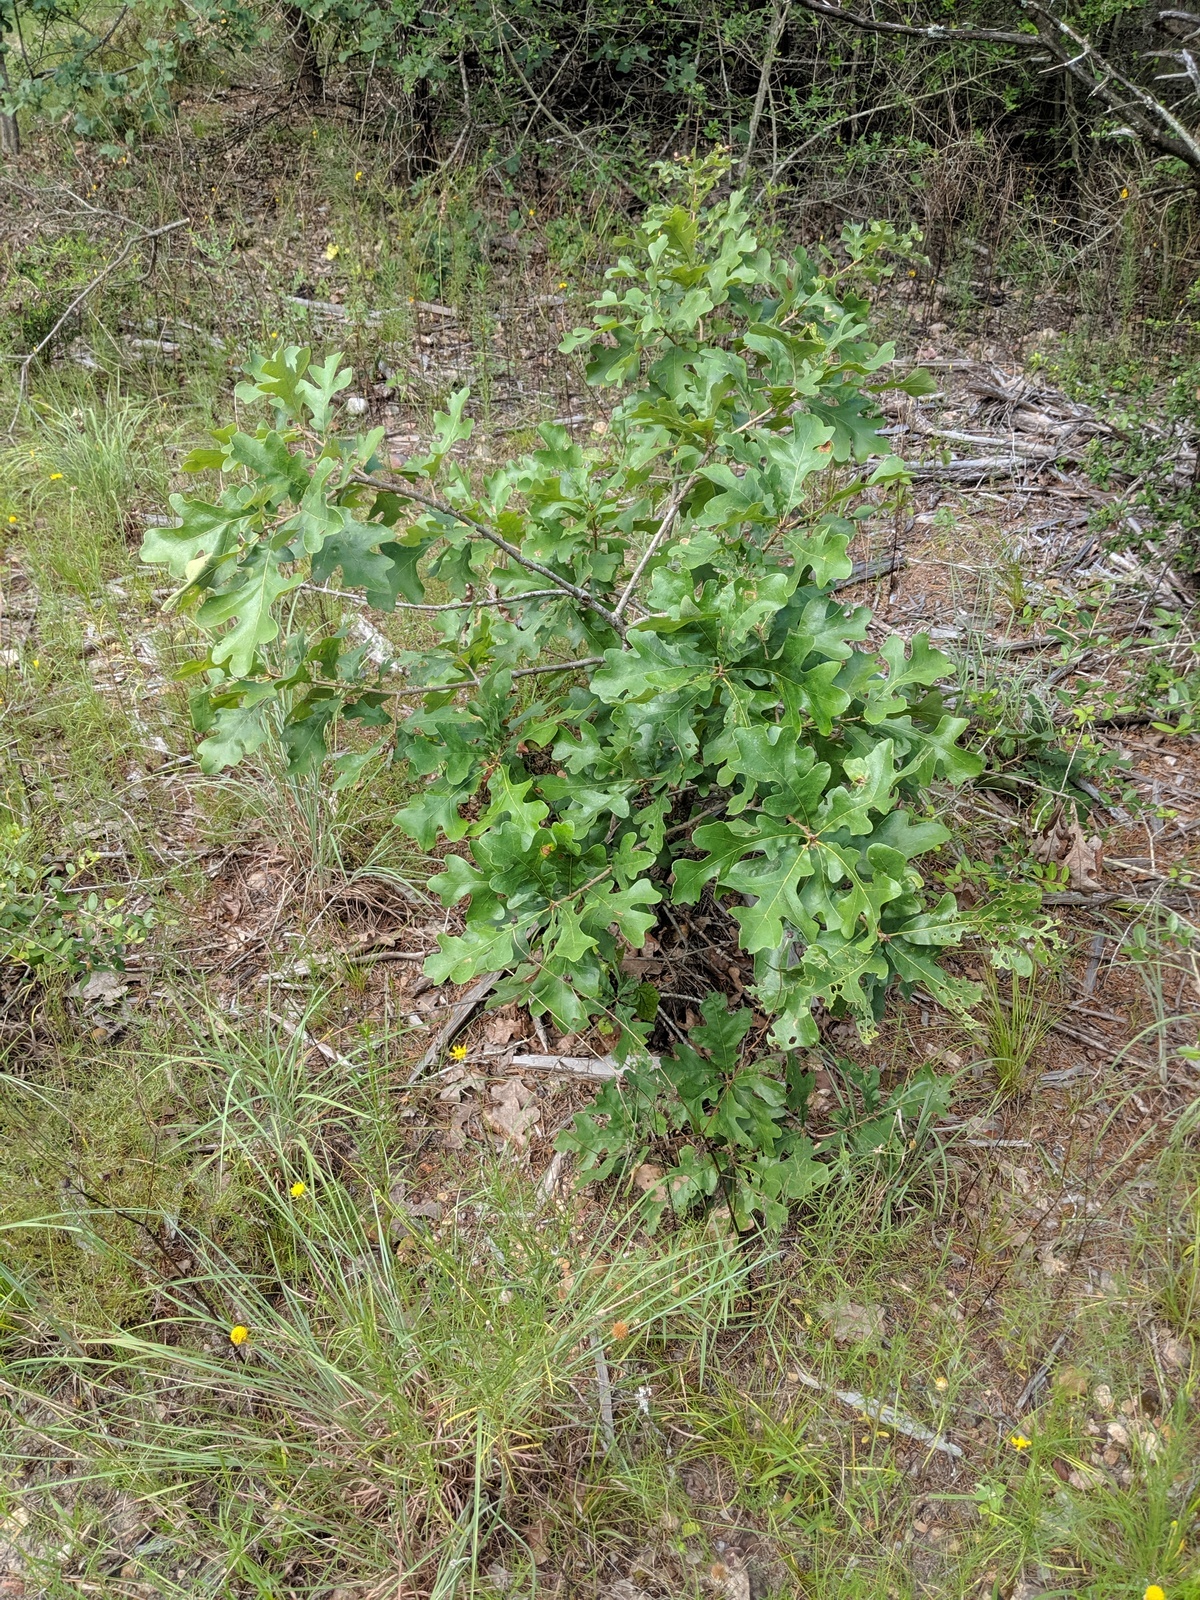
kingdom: Plantae
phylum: Tracheophyta
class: Magnoliopsida
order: Fagales
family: Fagaceae
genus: Quercus
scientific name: Quercus stellata
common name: Post oak
